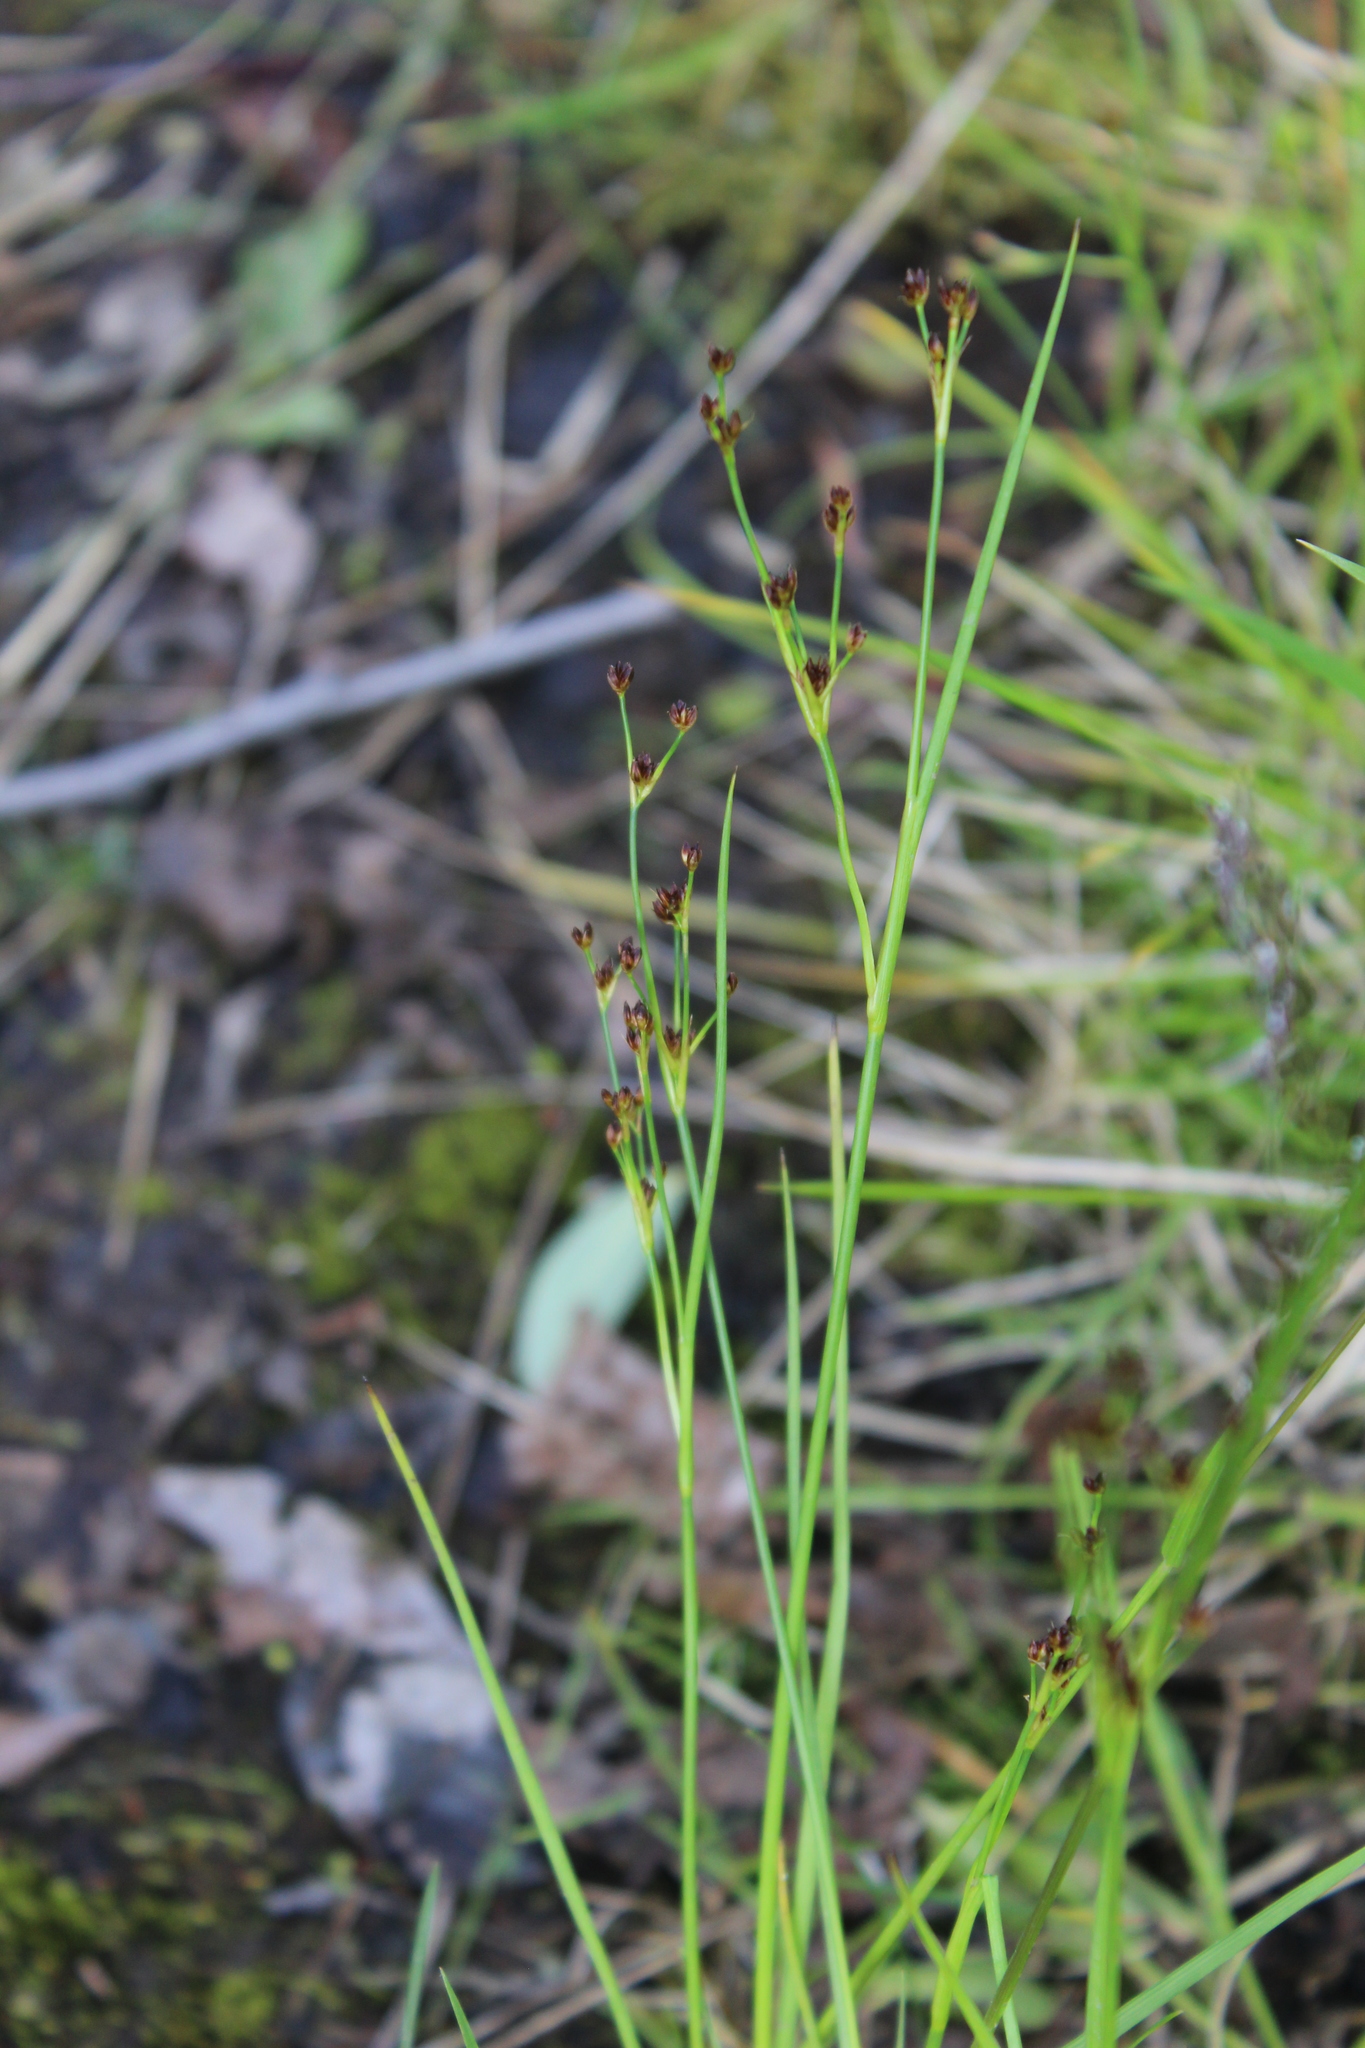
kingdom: Plantae
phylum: Tracheophyta
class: Liliopsida
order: Poales
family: Juncaceae
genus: Juncus
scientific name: Juncus alpinoarticulatus
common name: Alpine rush
